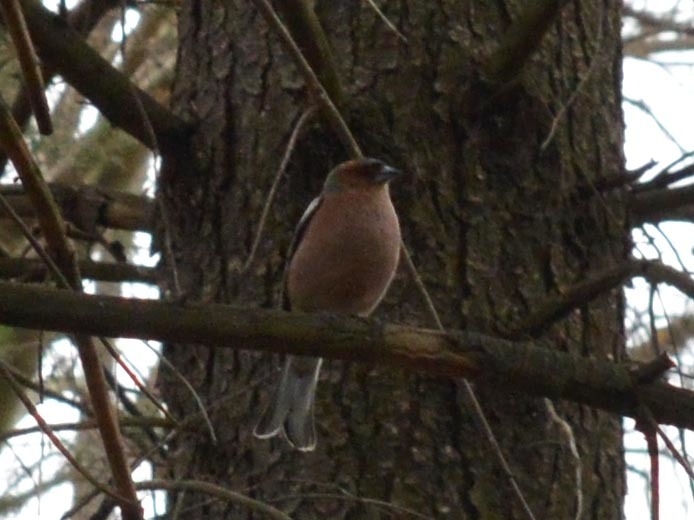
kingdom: Animalia
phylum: Chordata
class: Aves
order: Passeriformes
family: Fringillidae
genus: Fringilla
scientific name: Fringilla coelebs
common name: Common chaffinch
